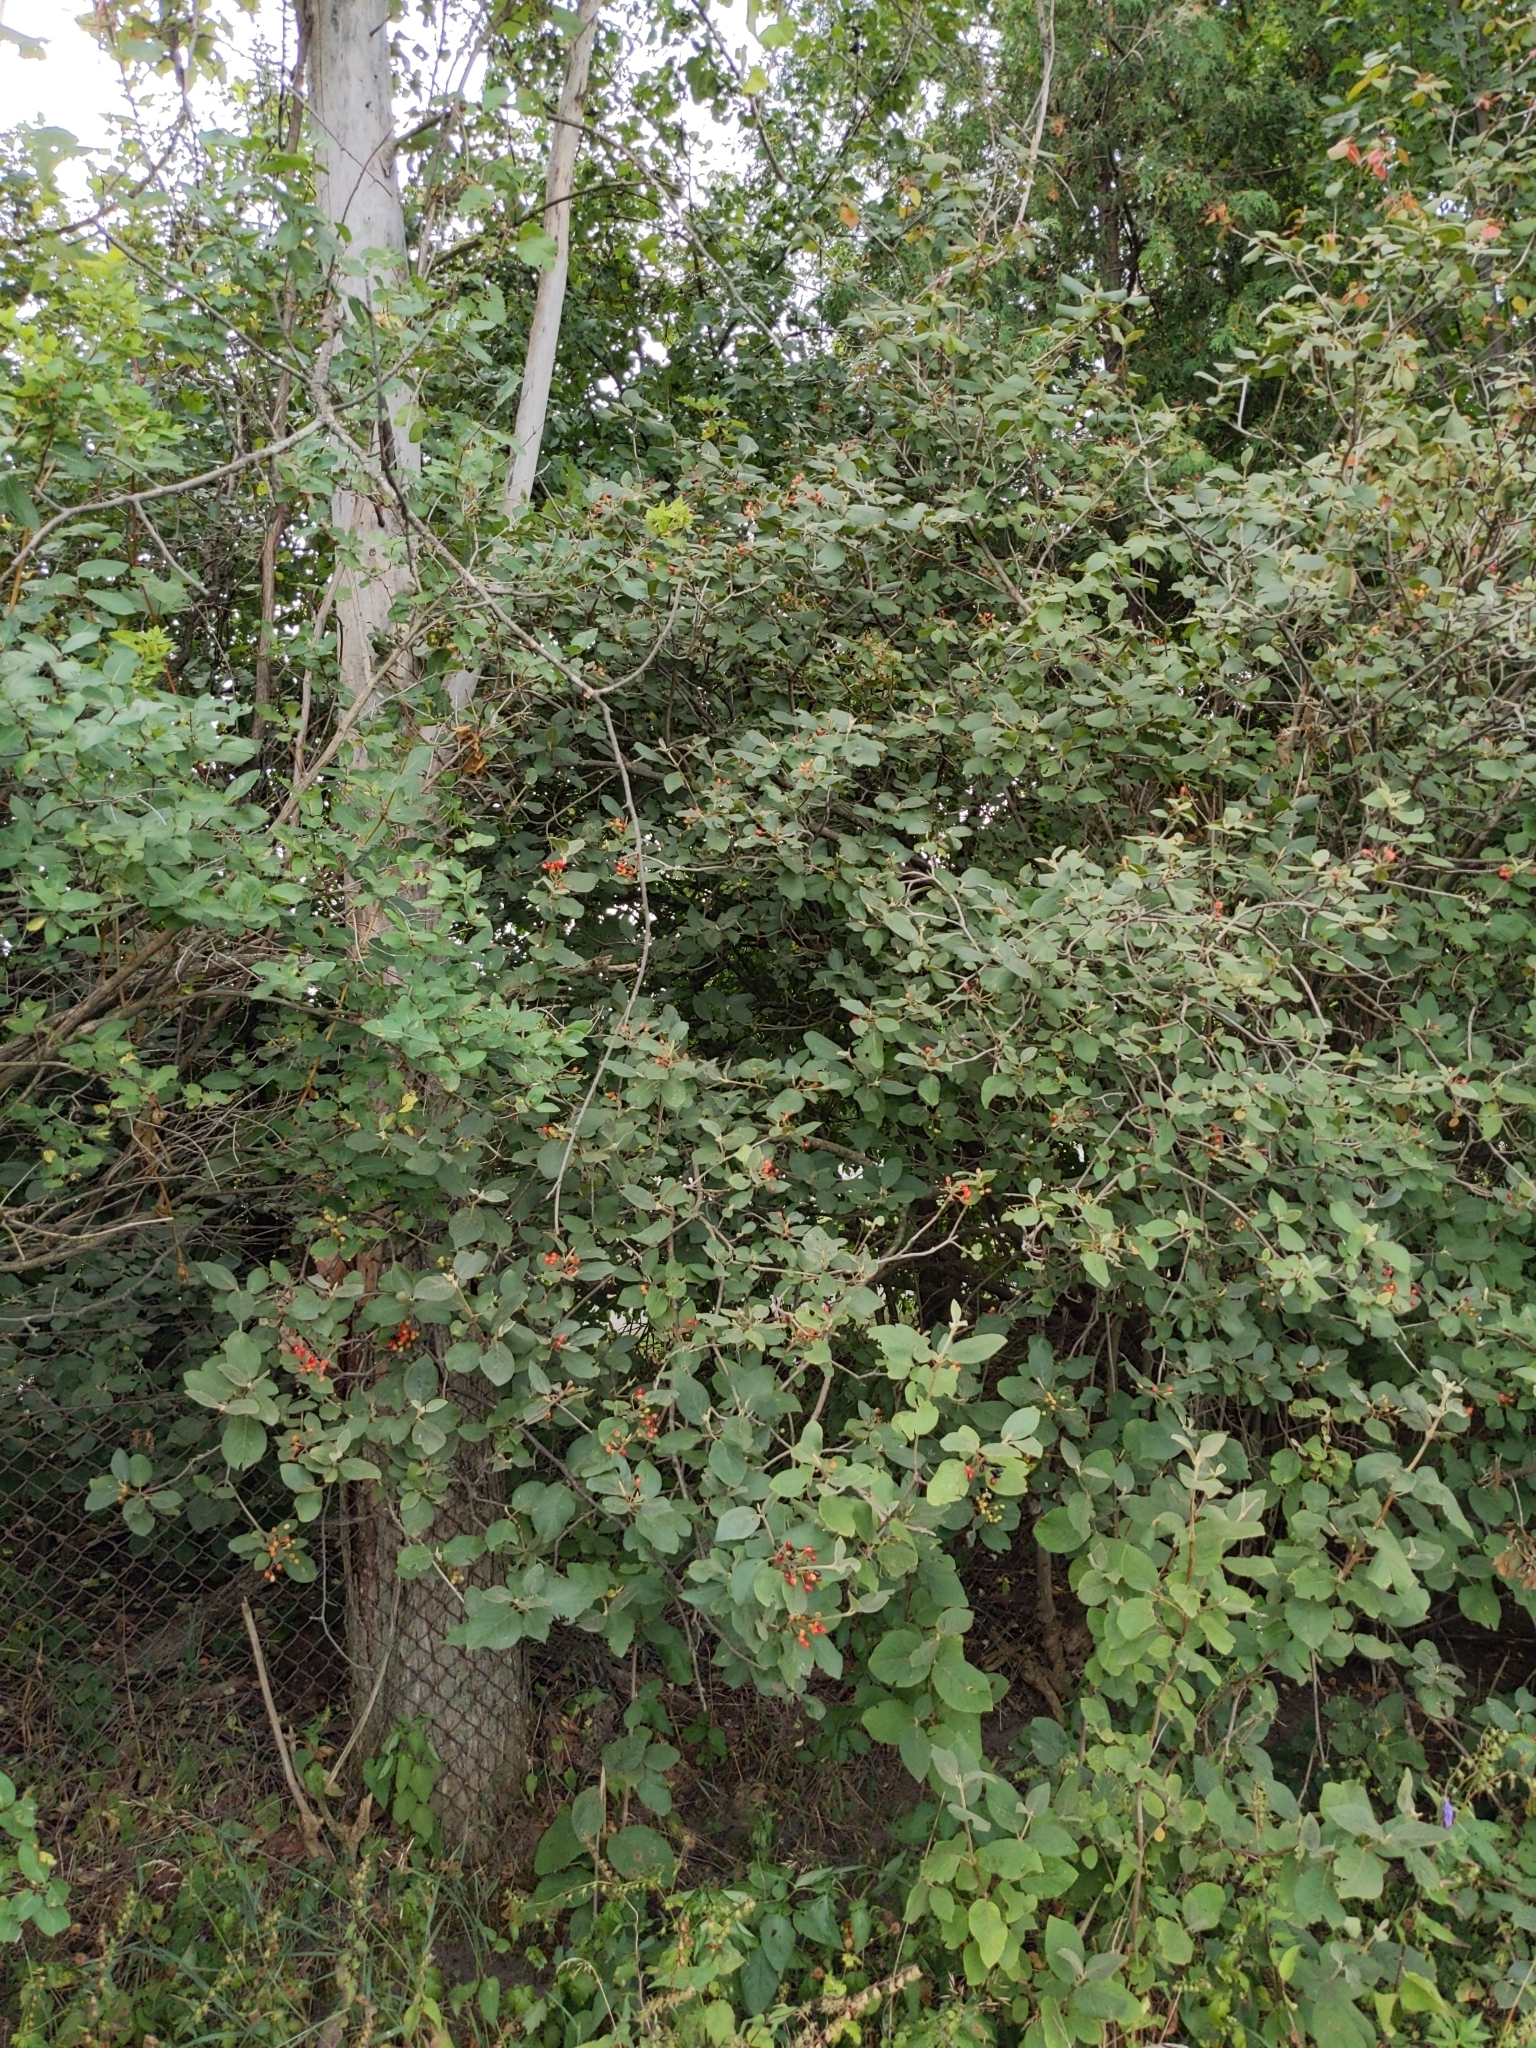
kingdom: Plantae
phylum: Tracheophyta
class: Magnoliopsida
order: Dipsacales
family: Viburnaceae
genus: Viburnum
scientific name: Viburnum lantana
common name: Wayfaring tree
